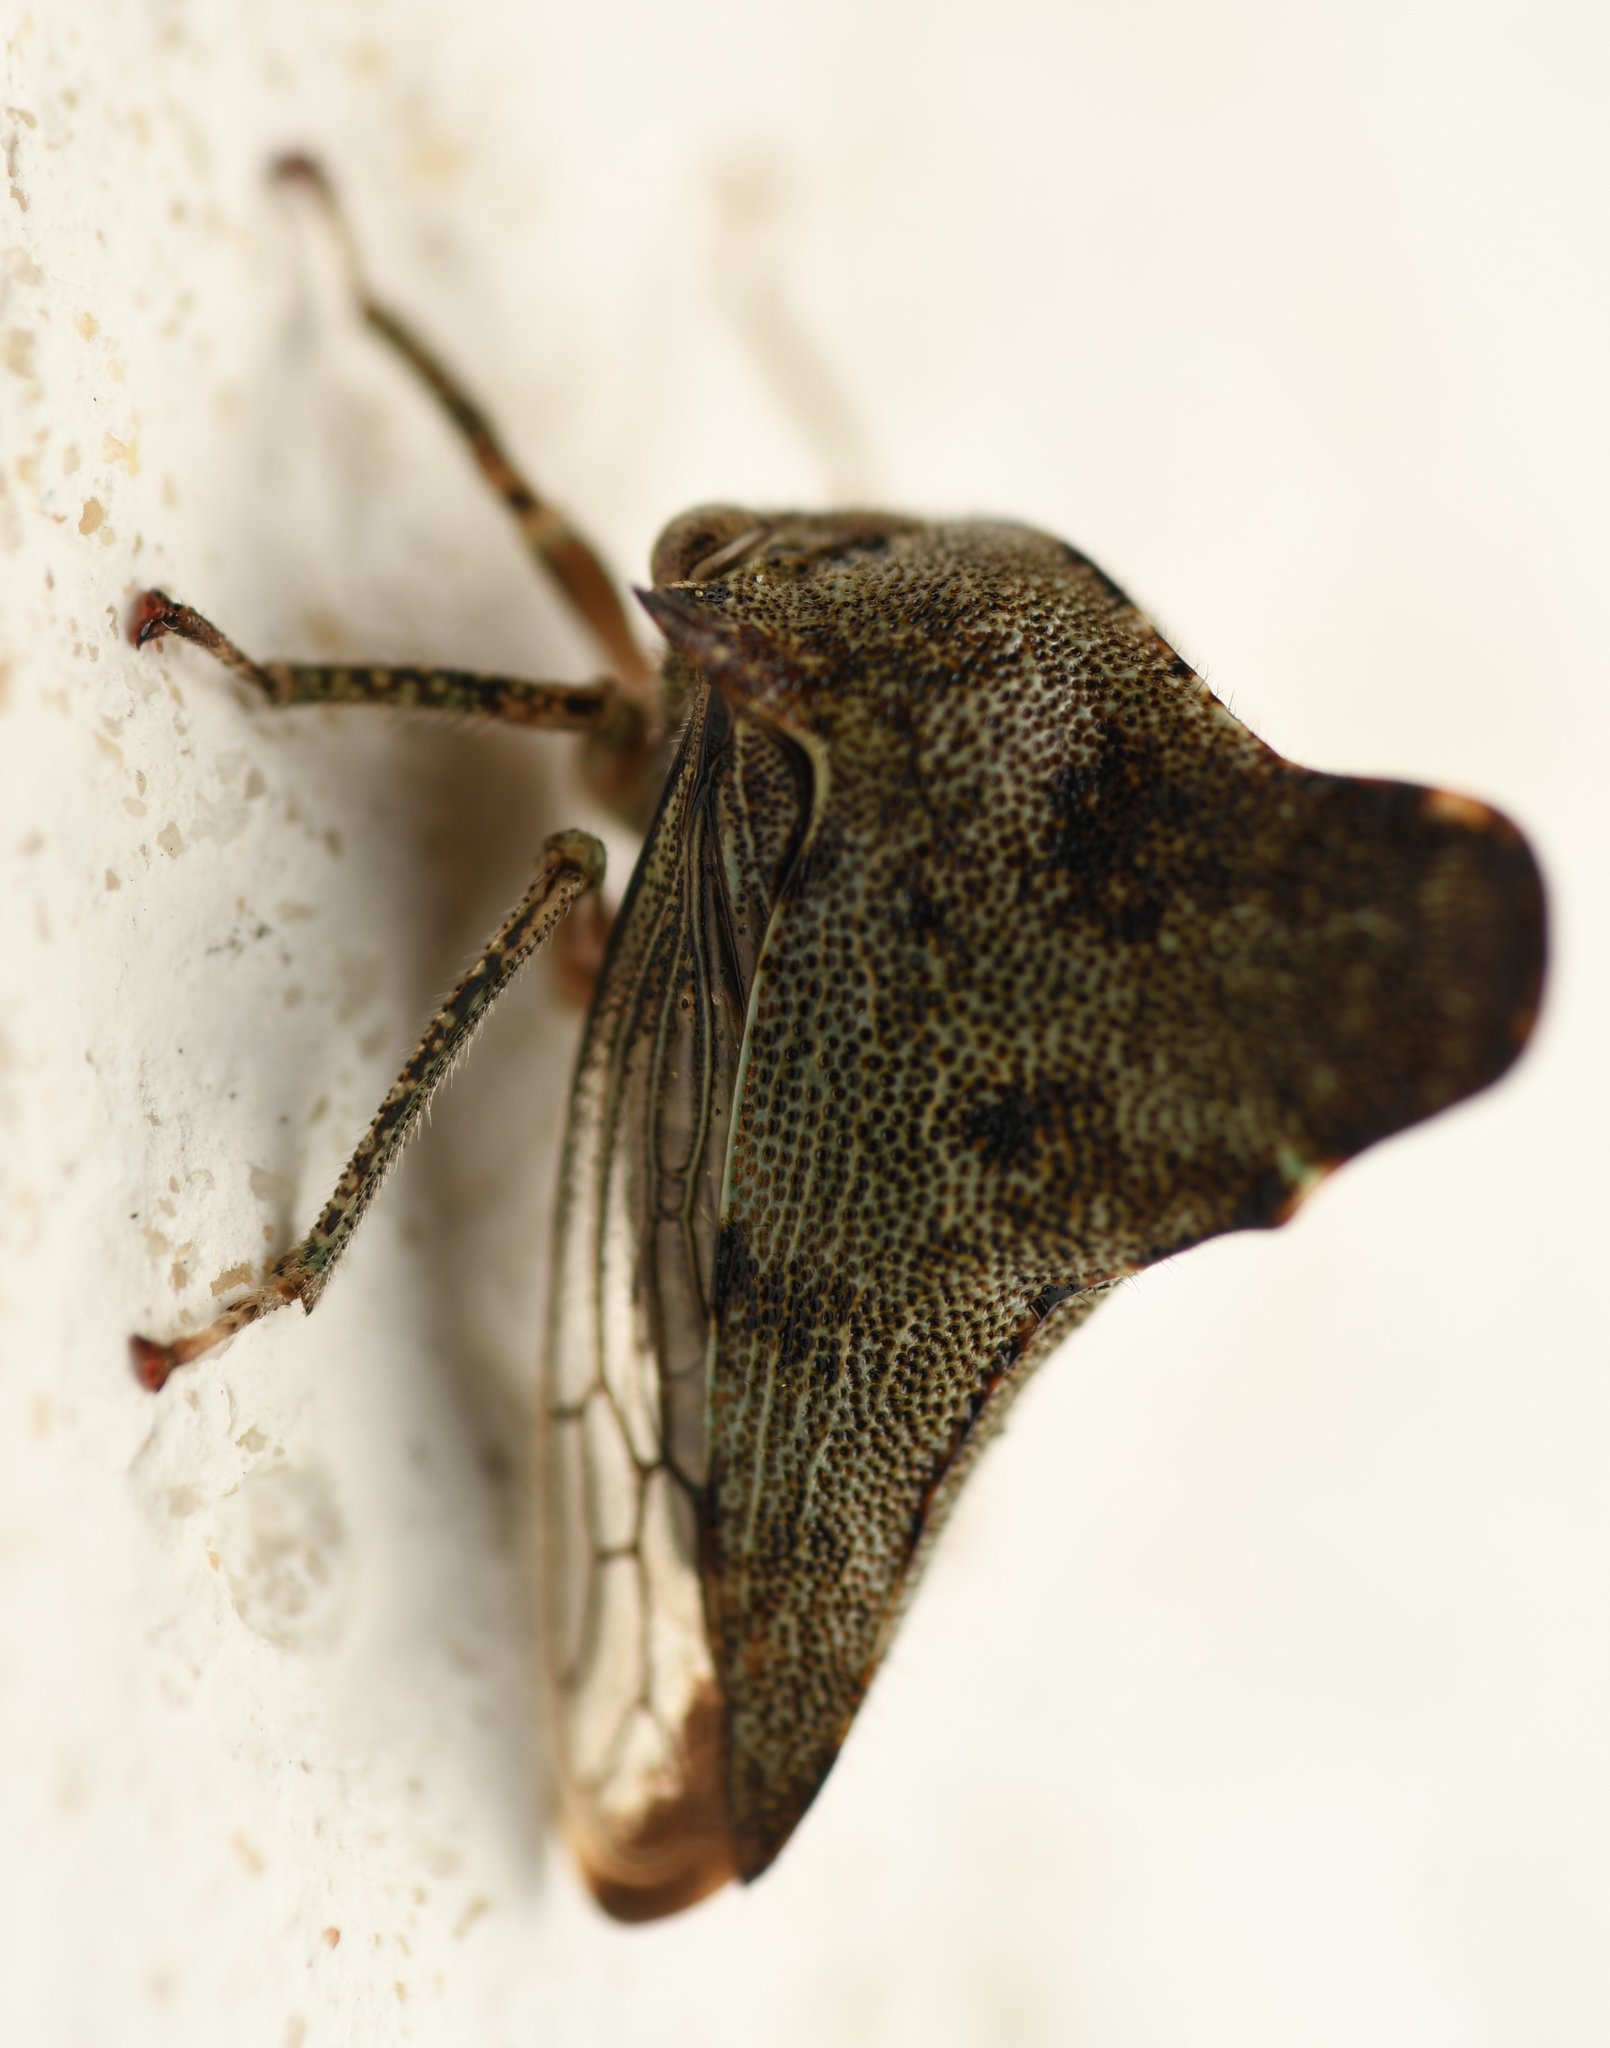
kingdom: Animalia
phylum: Arthropoda
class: Insecta
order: Hemiptera
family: Membracidae
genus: Telonaca
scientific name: Telonaca alta
